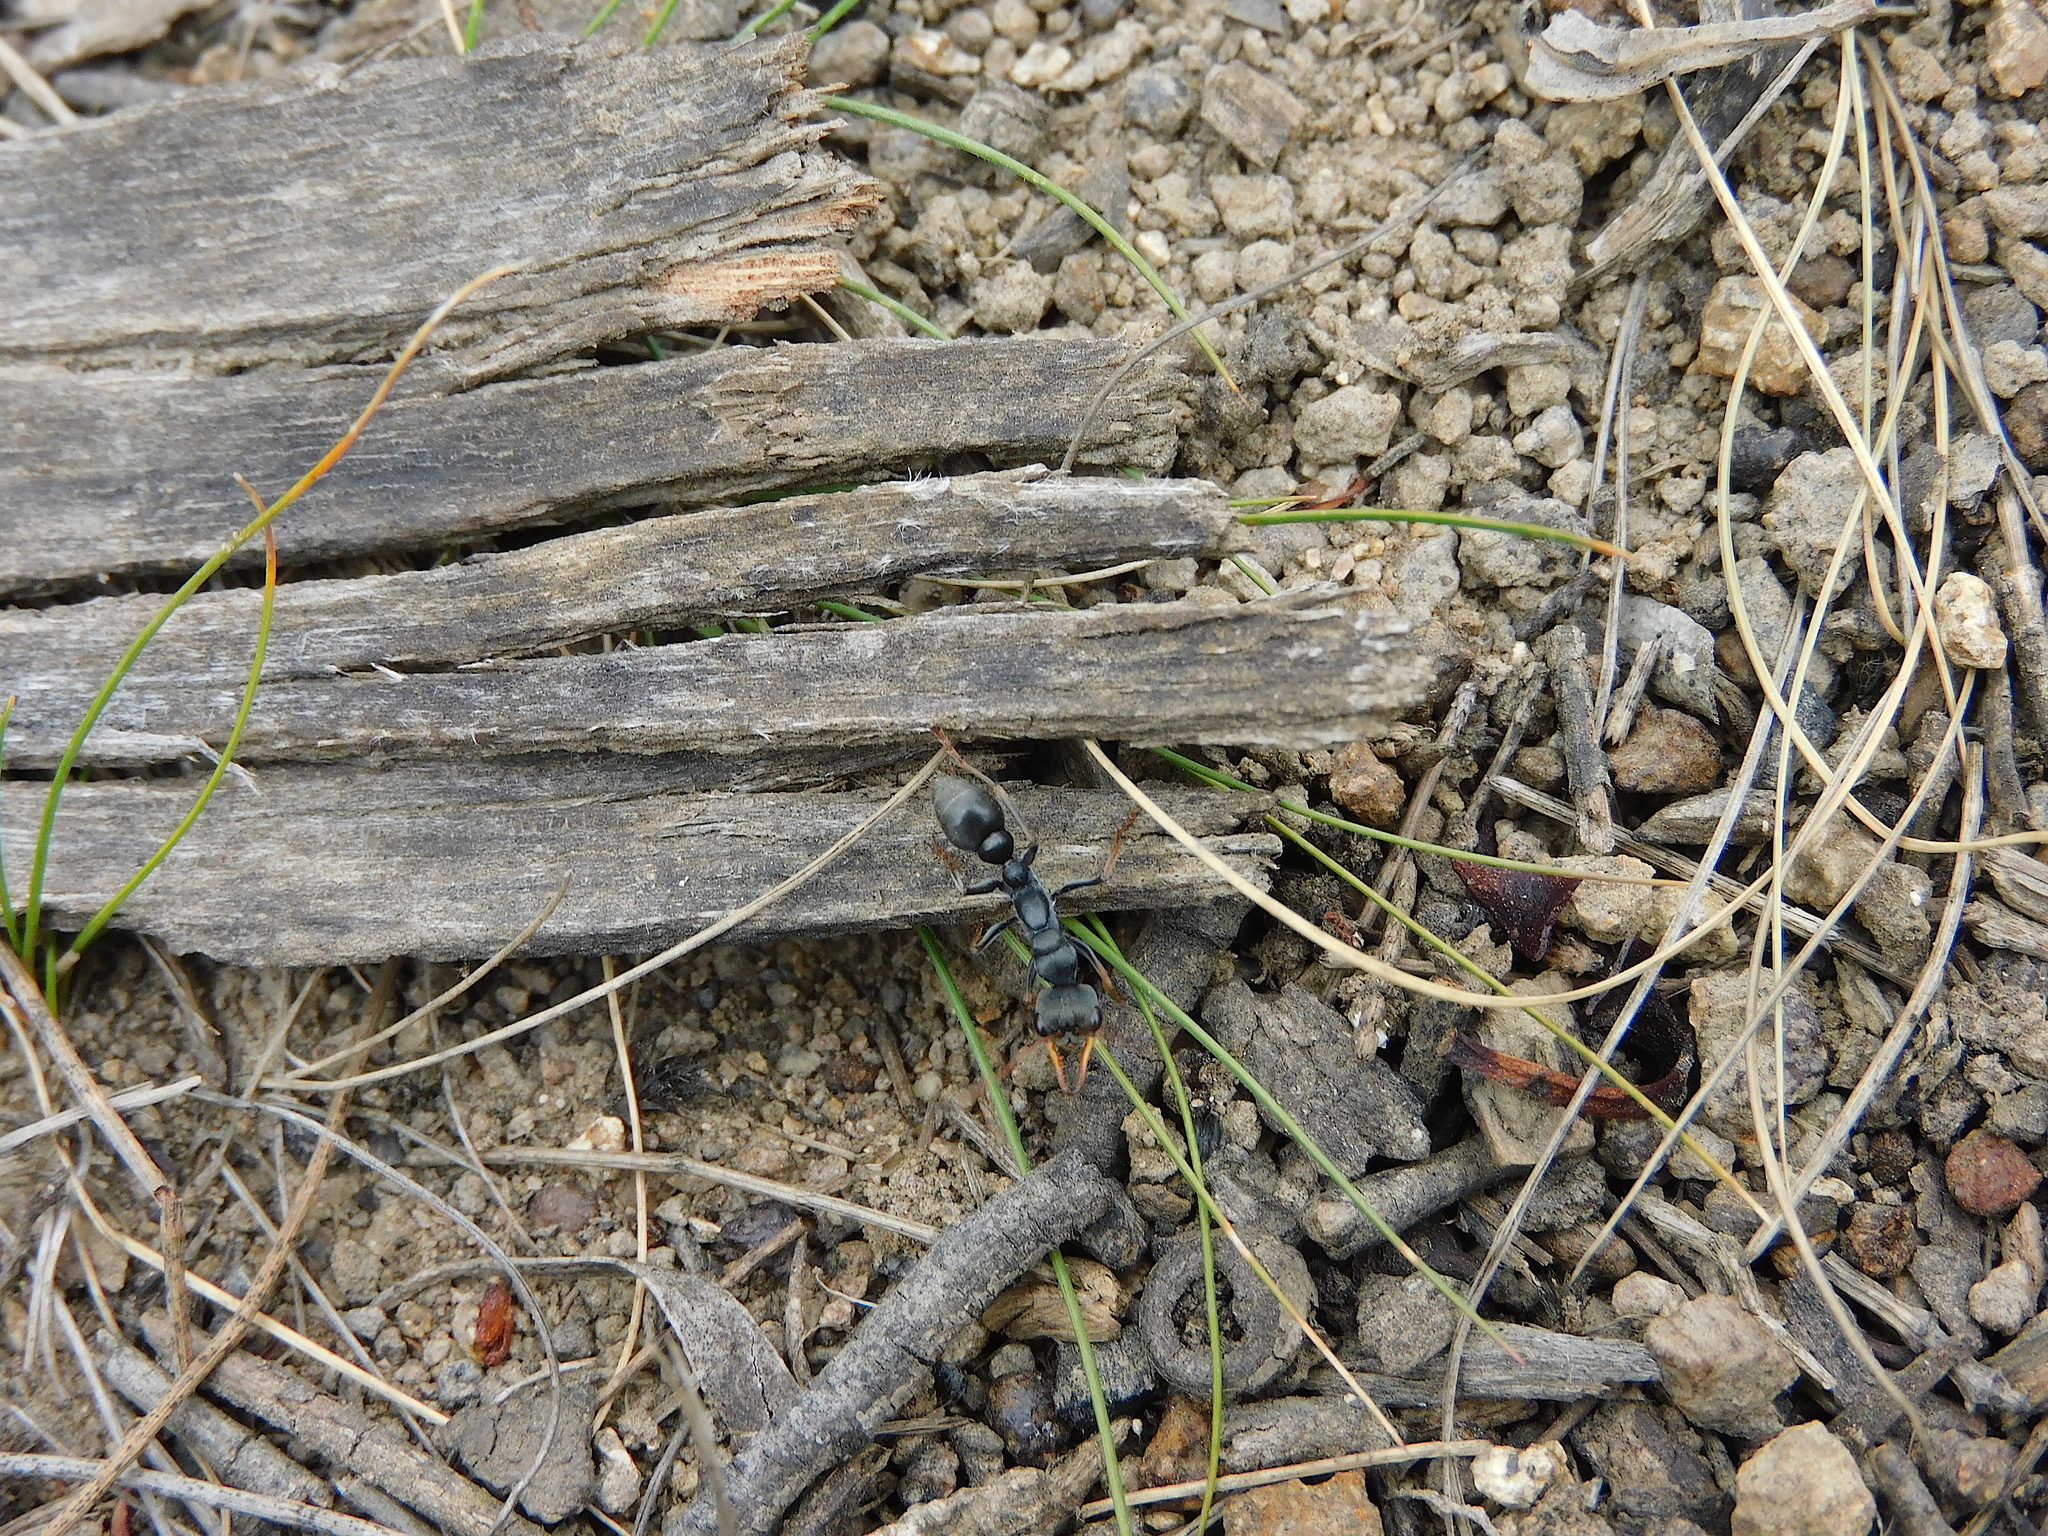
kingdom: Animalia
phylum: Arthropoda
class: Insecta
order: Hymenoptera
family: Formicidae
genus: Myrmecia
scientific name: Myrmecia pilosula
